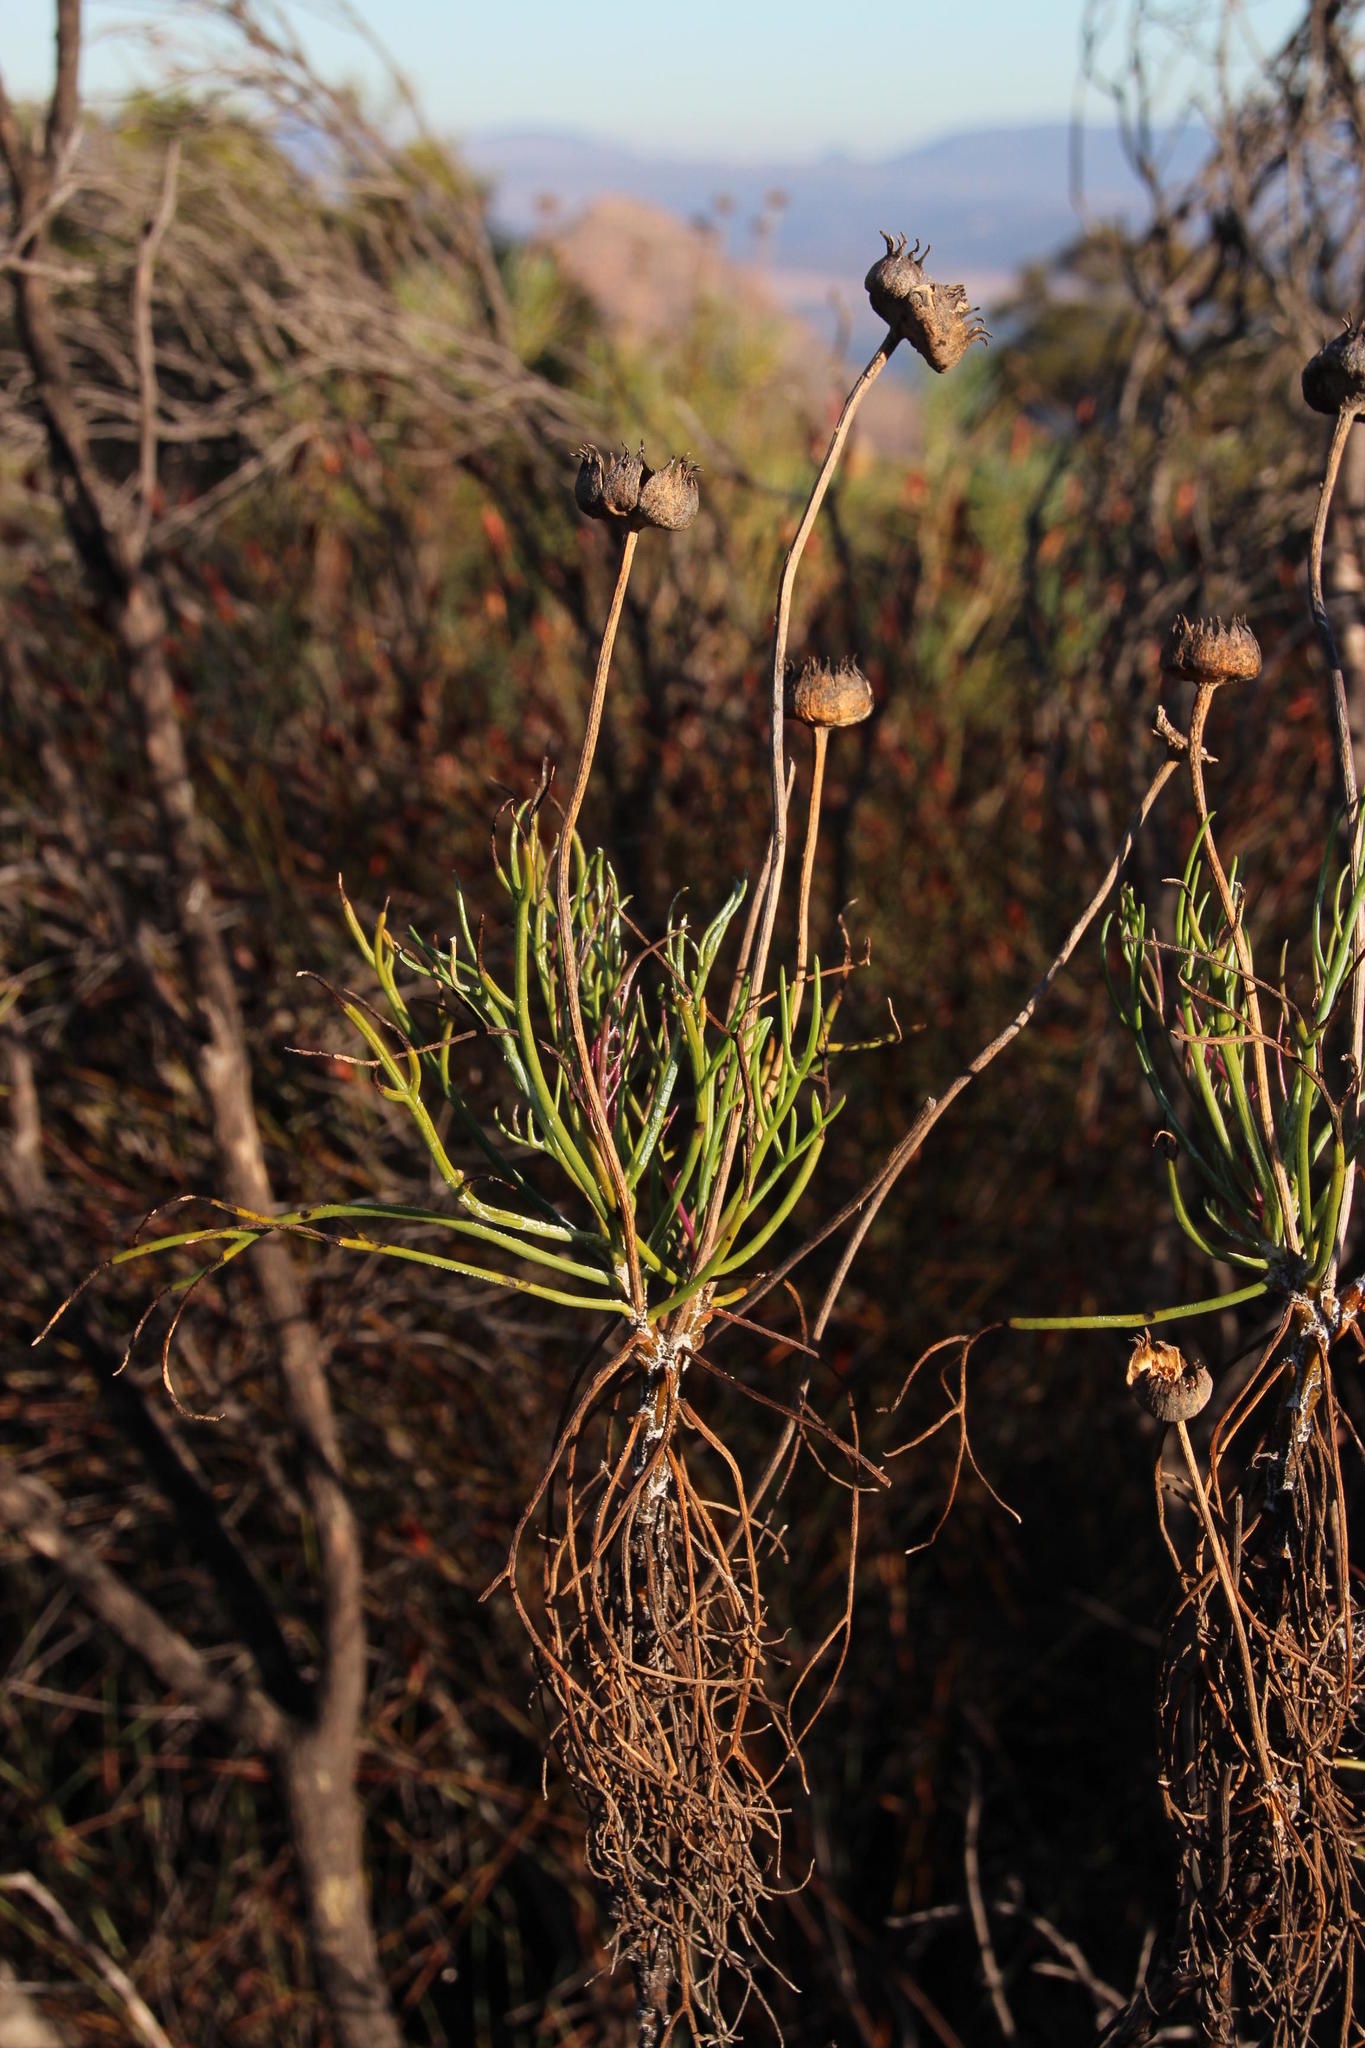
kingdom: Plantae
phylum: Tracheophyta
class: Magnoliopsida
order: Asterales
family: Asteraceae
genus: Euryops
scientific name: Euryops speciosissimus
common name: Clanwilliam daisy
